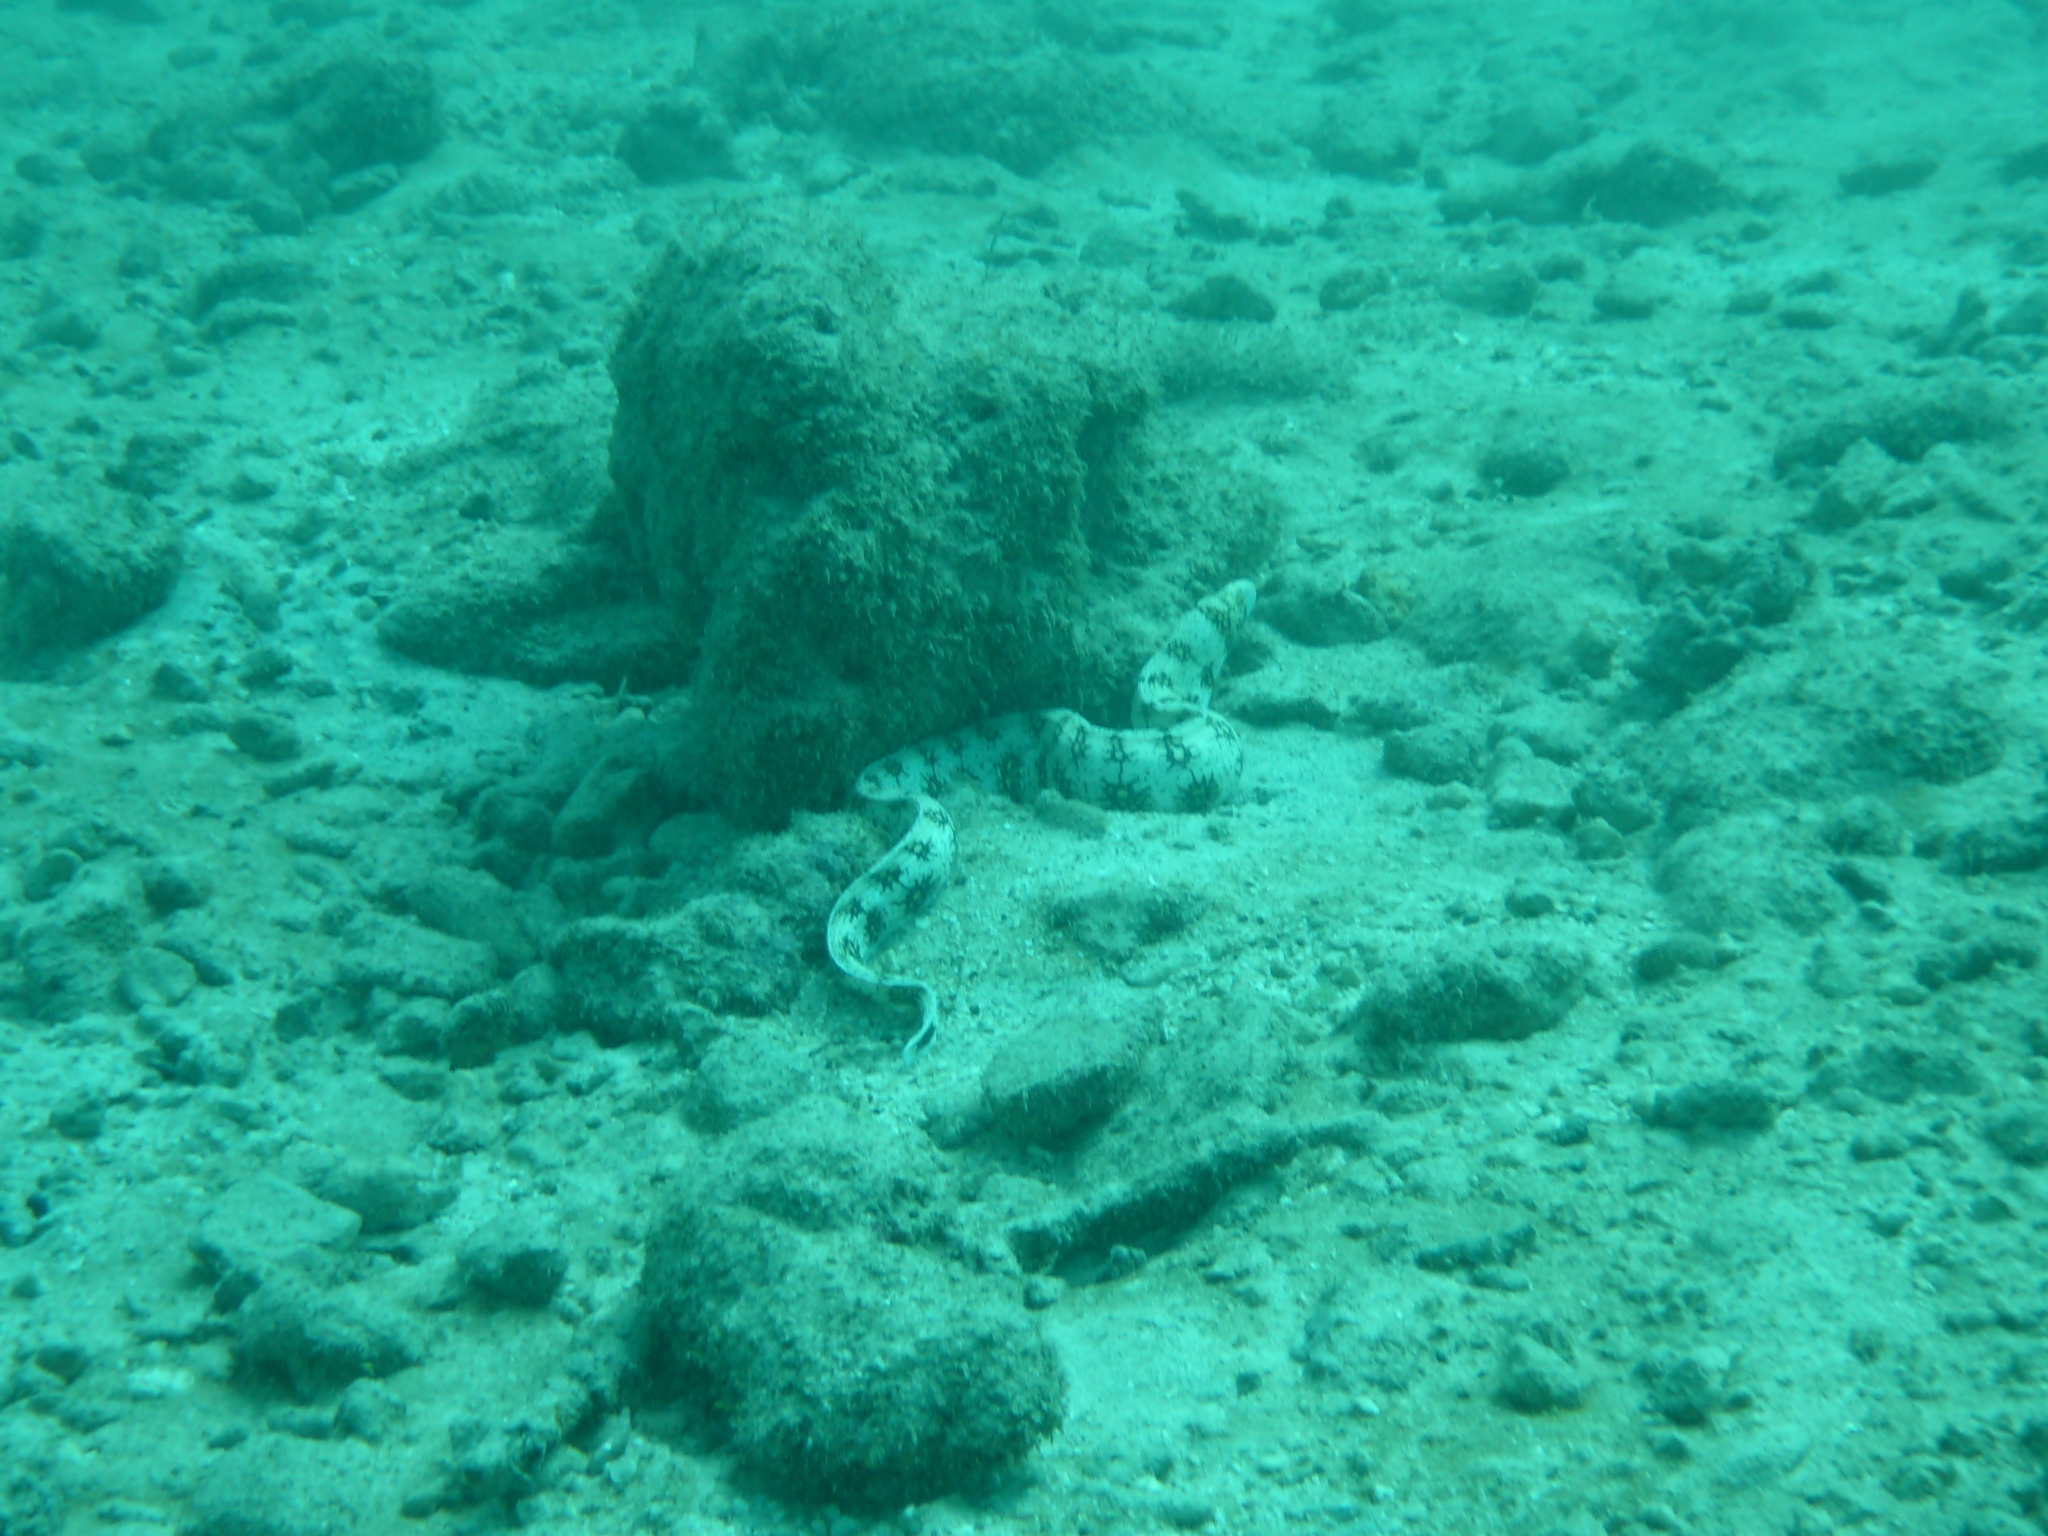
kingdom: Animalia
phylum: Chordata
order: Anguilliformes
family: Muraenidae
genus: Echidna
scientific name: Echidna nebulosa
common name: Snowflake moray
